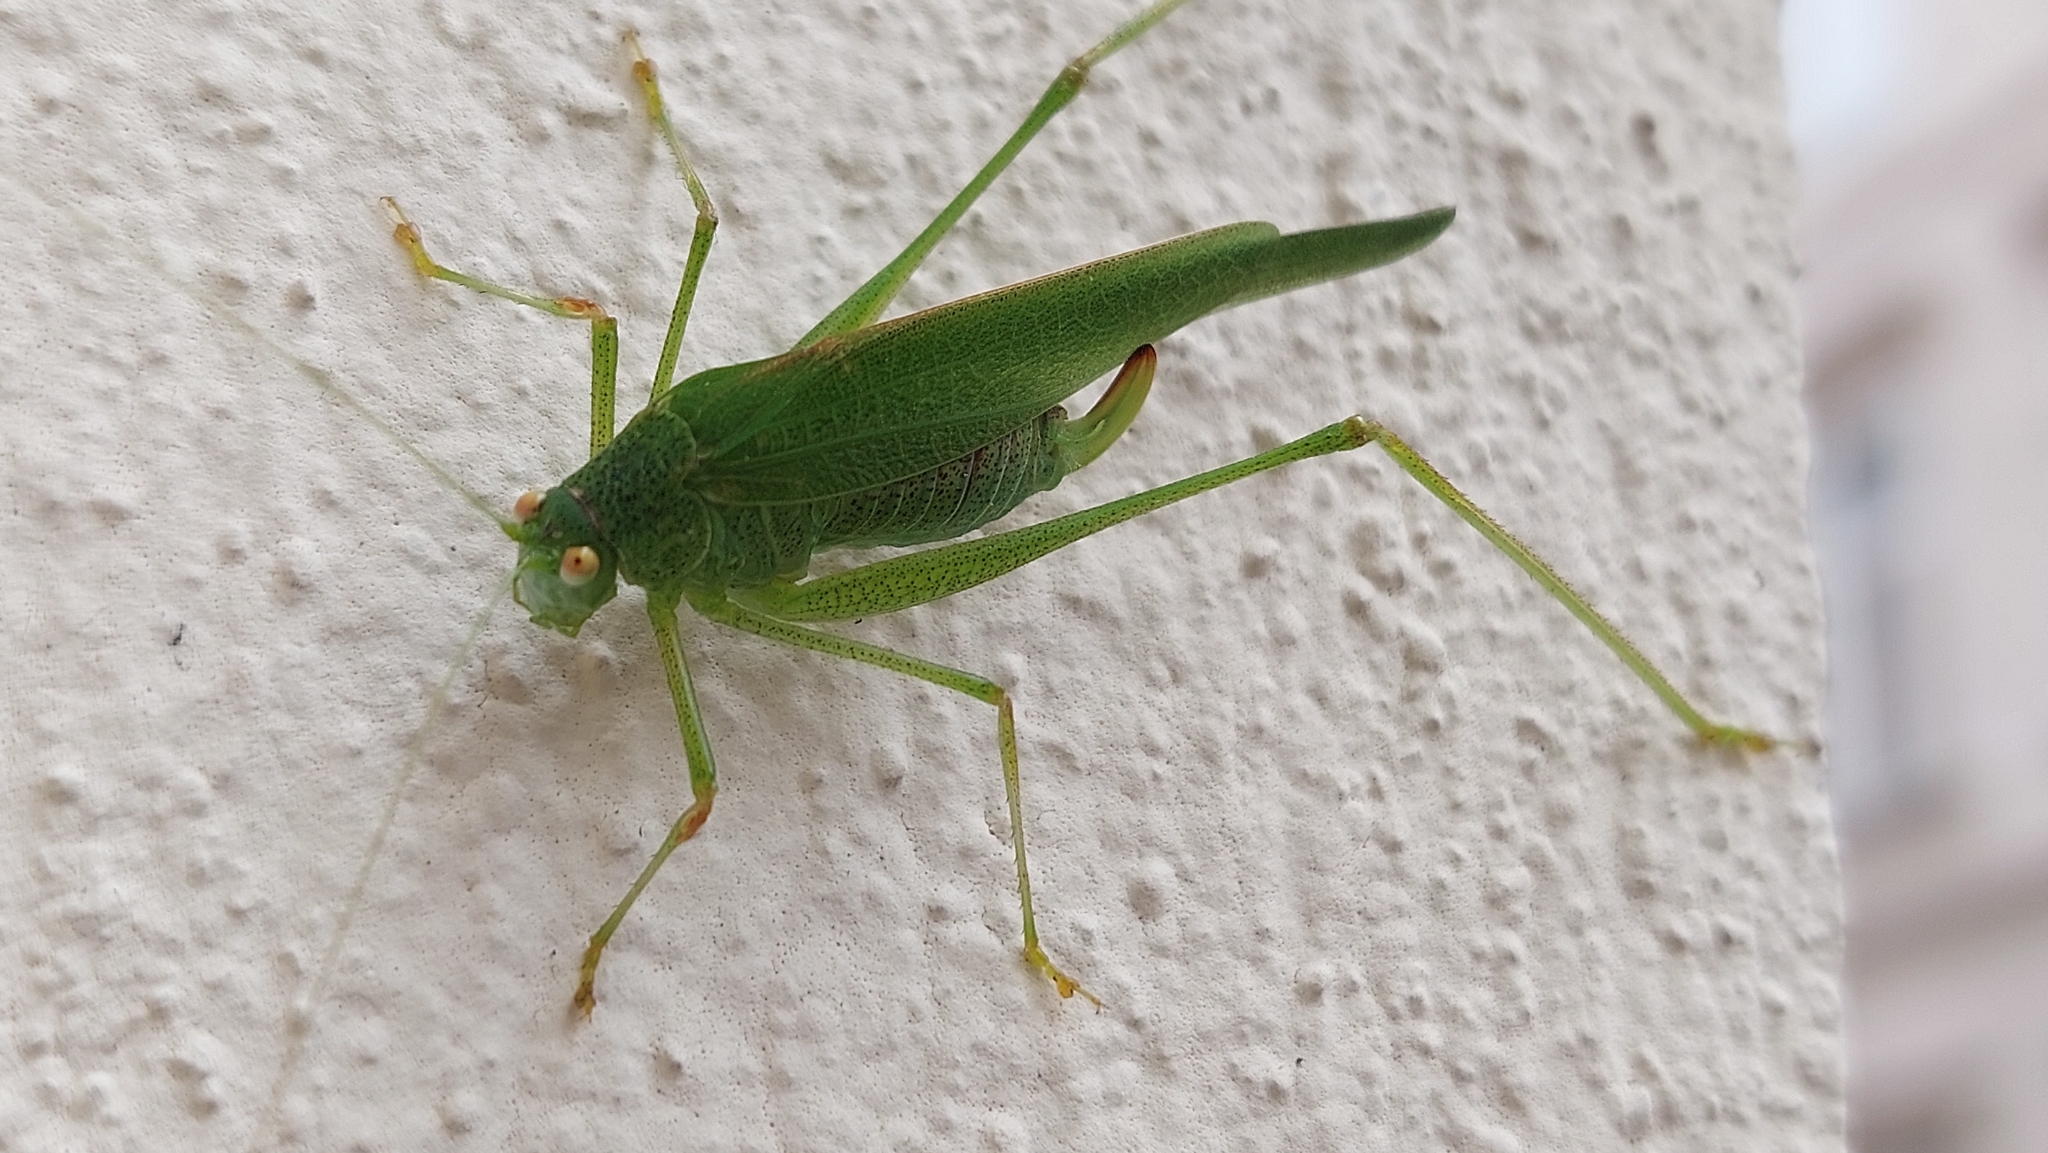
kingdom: Animalia
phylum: Arthropoda
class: Insecta
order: Orthoptera
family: Tettigoniidae
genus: Phaneroptera
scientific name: Phaneroptera nana
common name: Southern sickle bush-cricket
